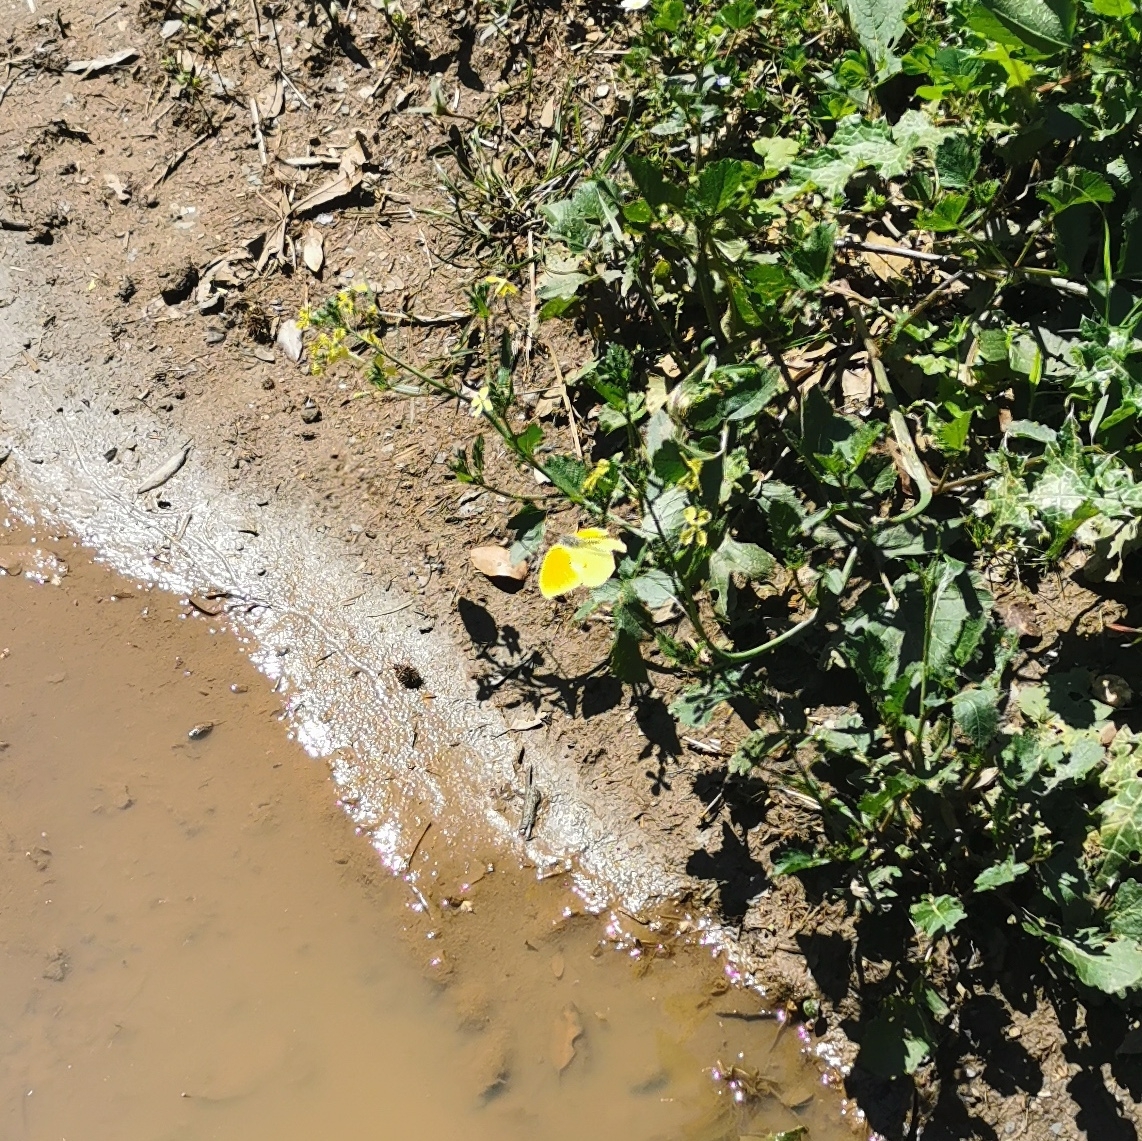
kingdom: Animalia
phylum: Arthropoda
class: Insecta
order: Lepidoptera
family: Pieridae
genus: Gonepteryx
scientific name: Gonepteryx cleopatra
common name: Cleopatra
